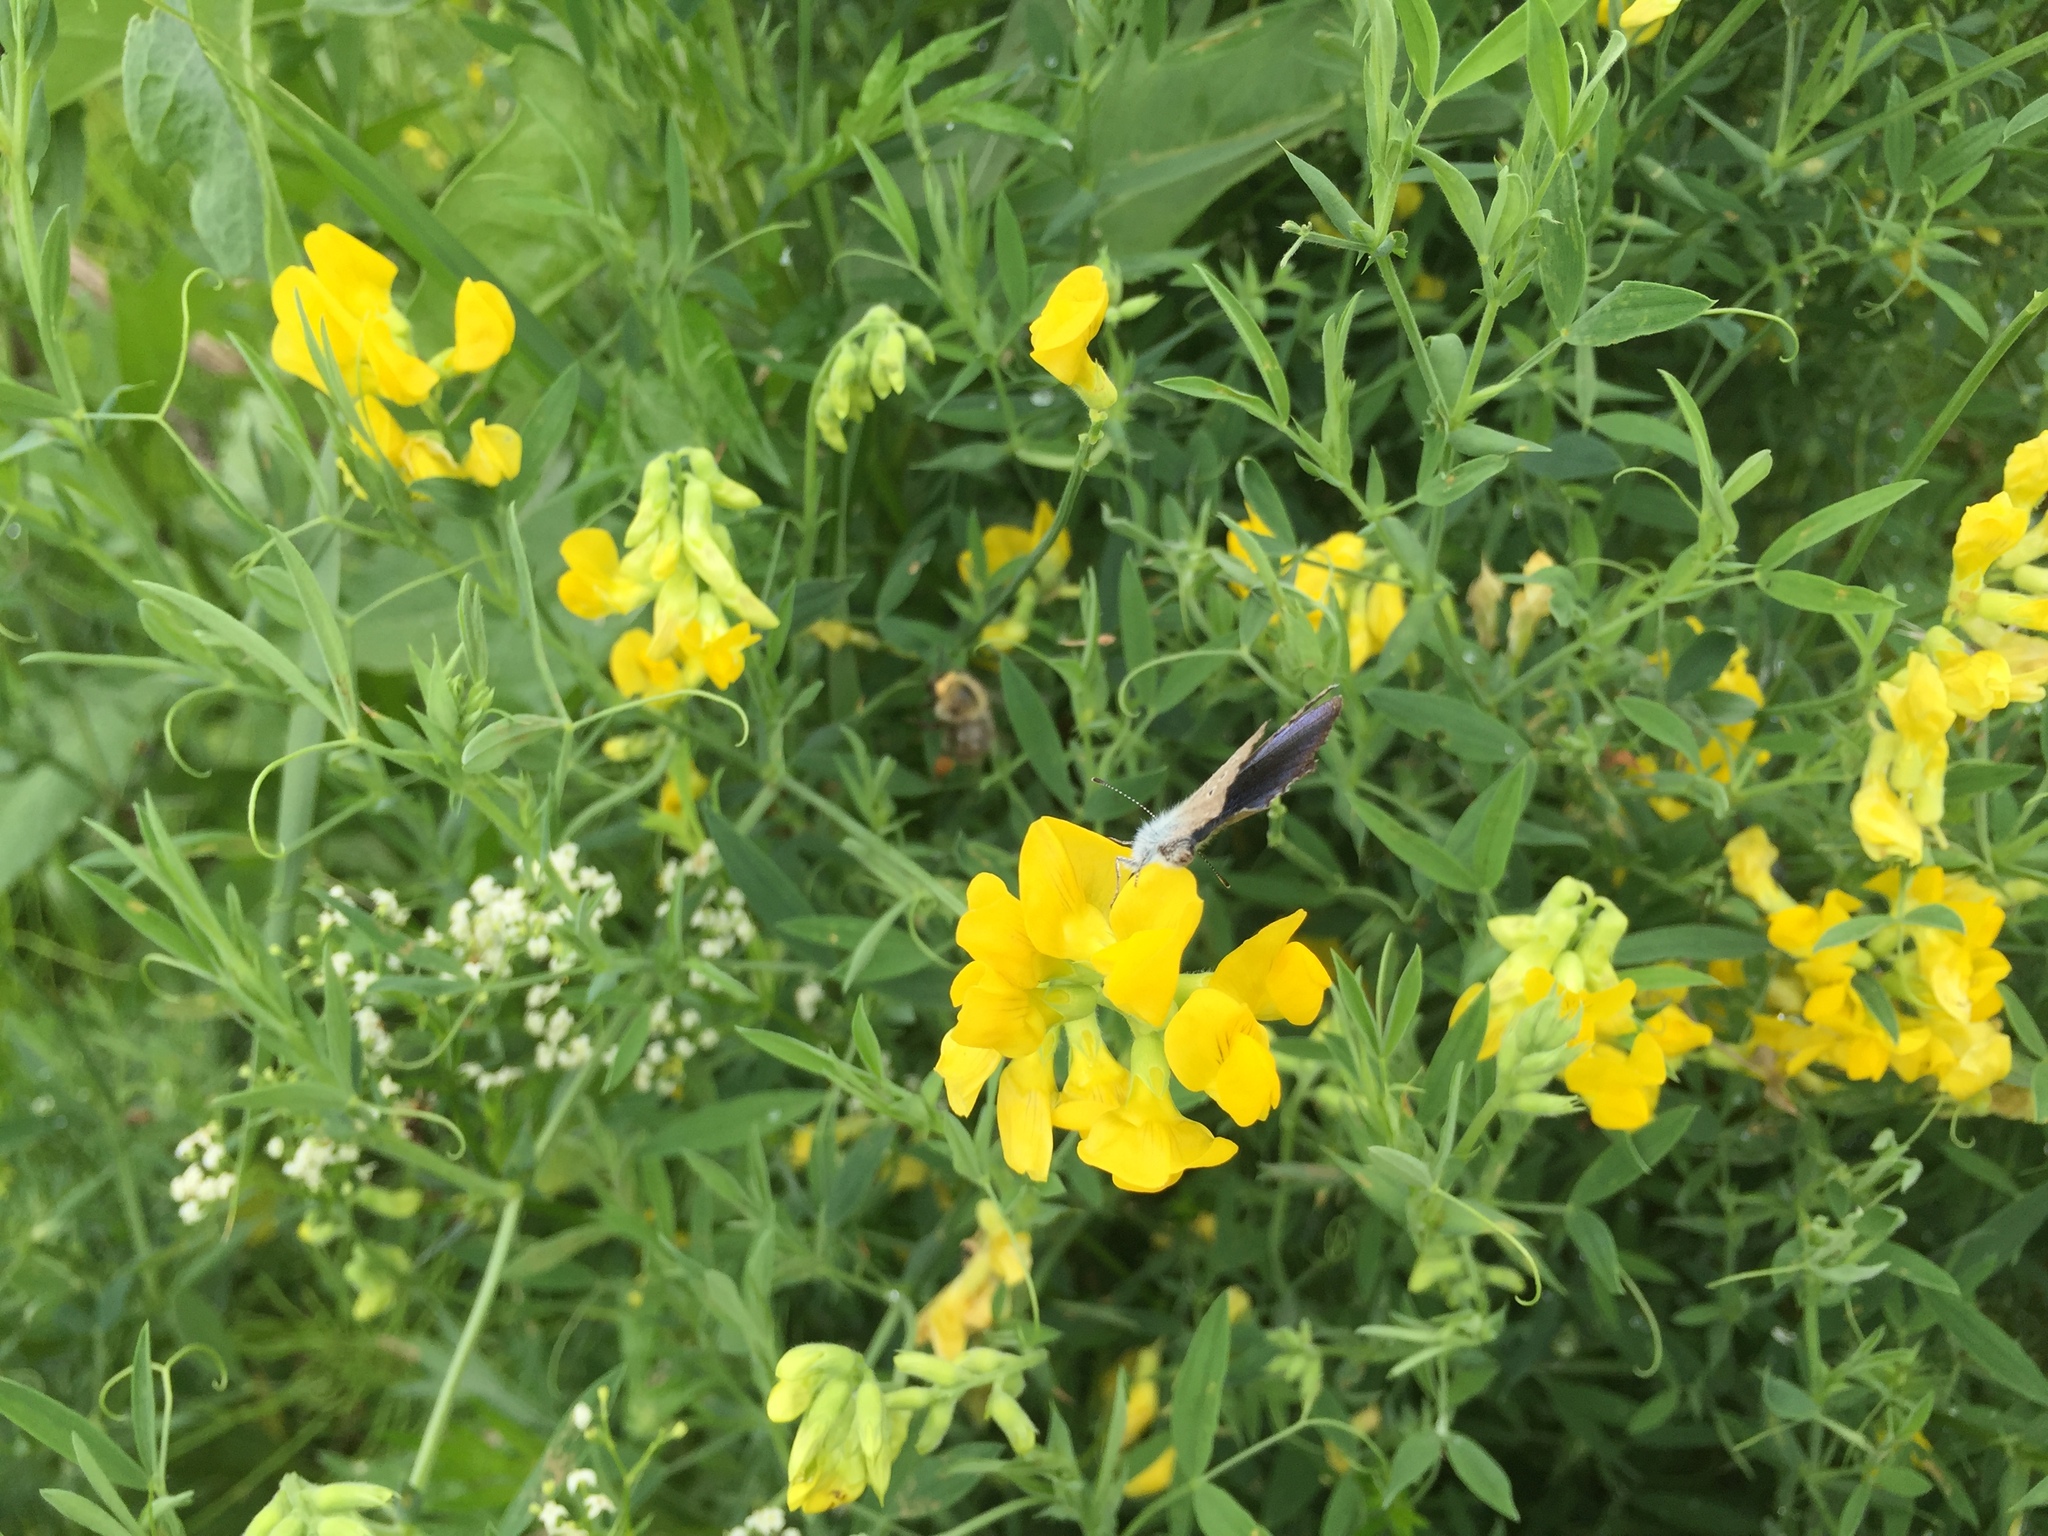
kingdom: Animalia
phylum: Arthropoda
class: Insecta
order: Lepidoptera
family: Lycaenidae
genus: Cyaniris
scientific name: Cyaniris semiargus
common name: Mazarine blue
